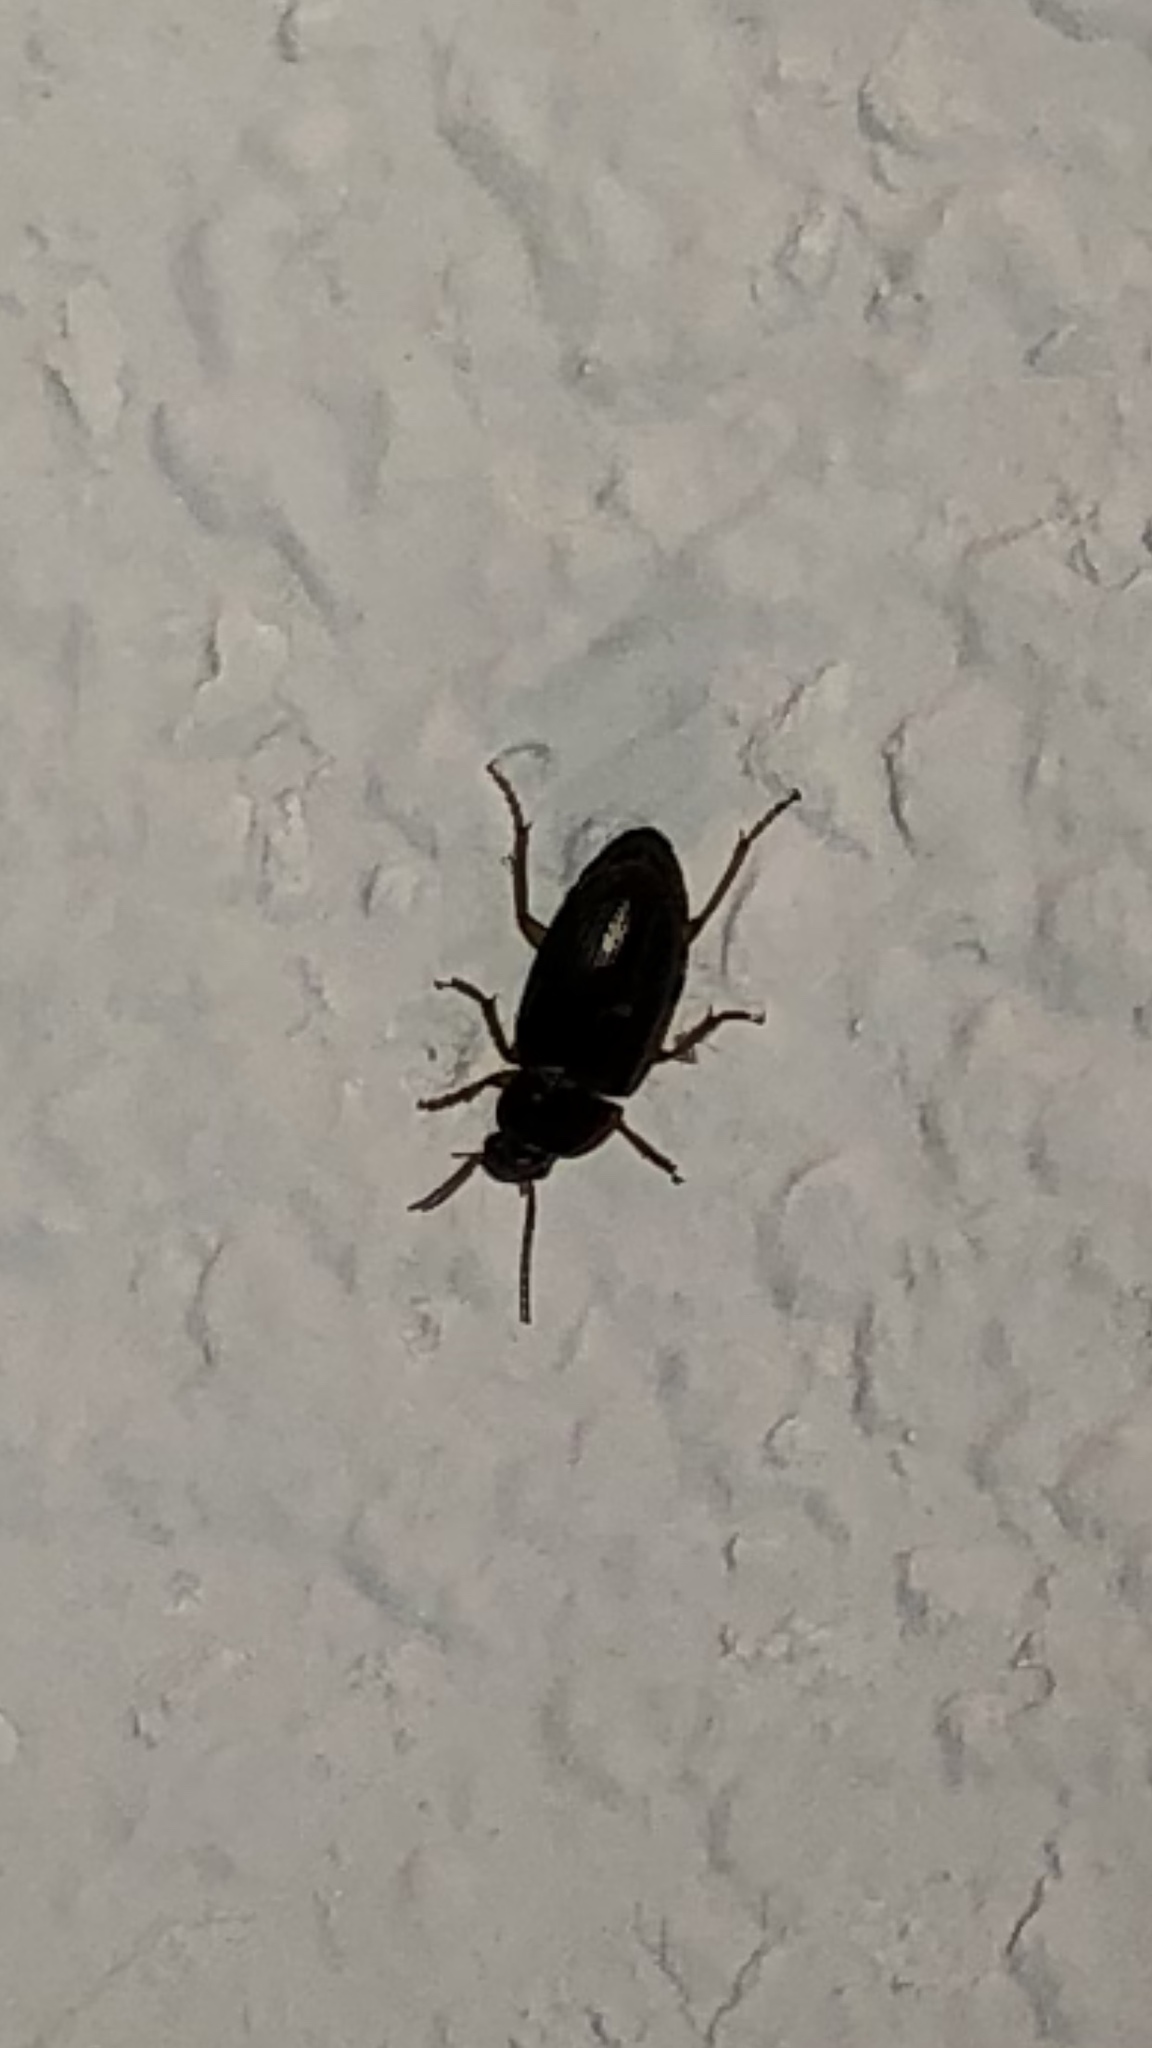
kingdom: Animalia
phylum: Arthropoda
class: Insecta
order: Coleoptera
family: Carabidae
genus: Notiobia
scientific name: Notiobia terminata
